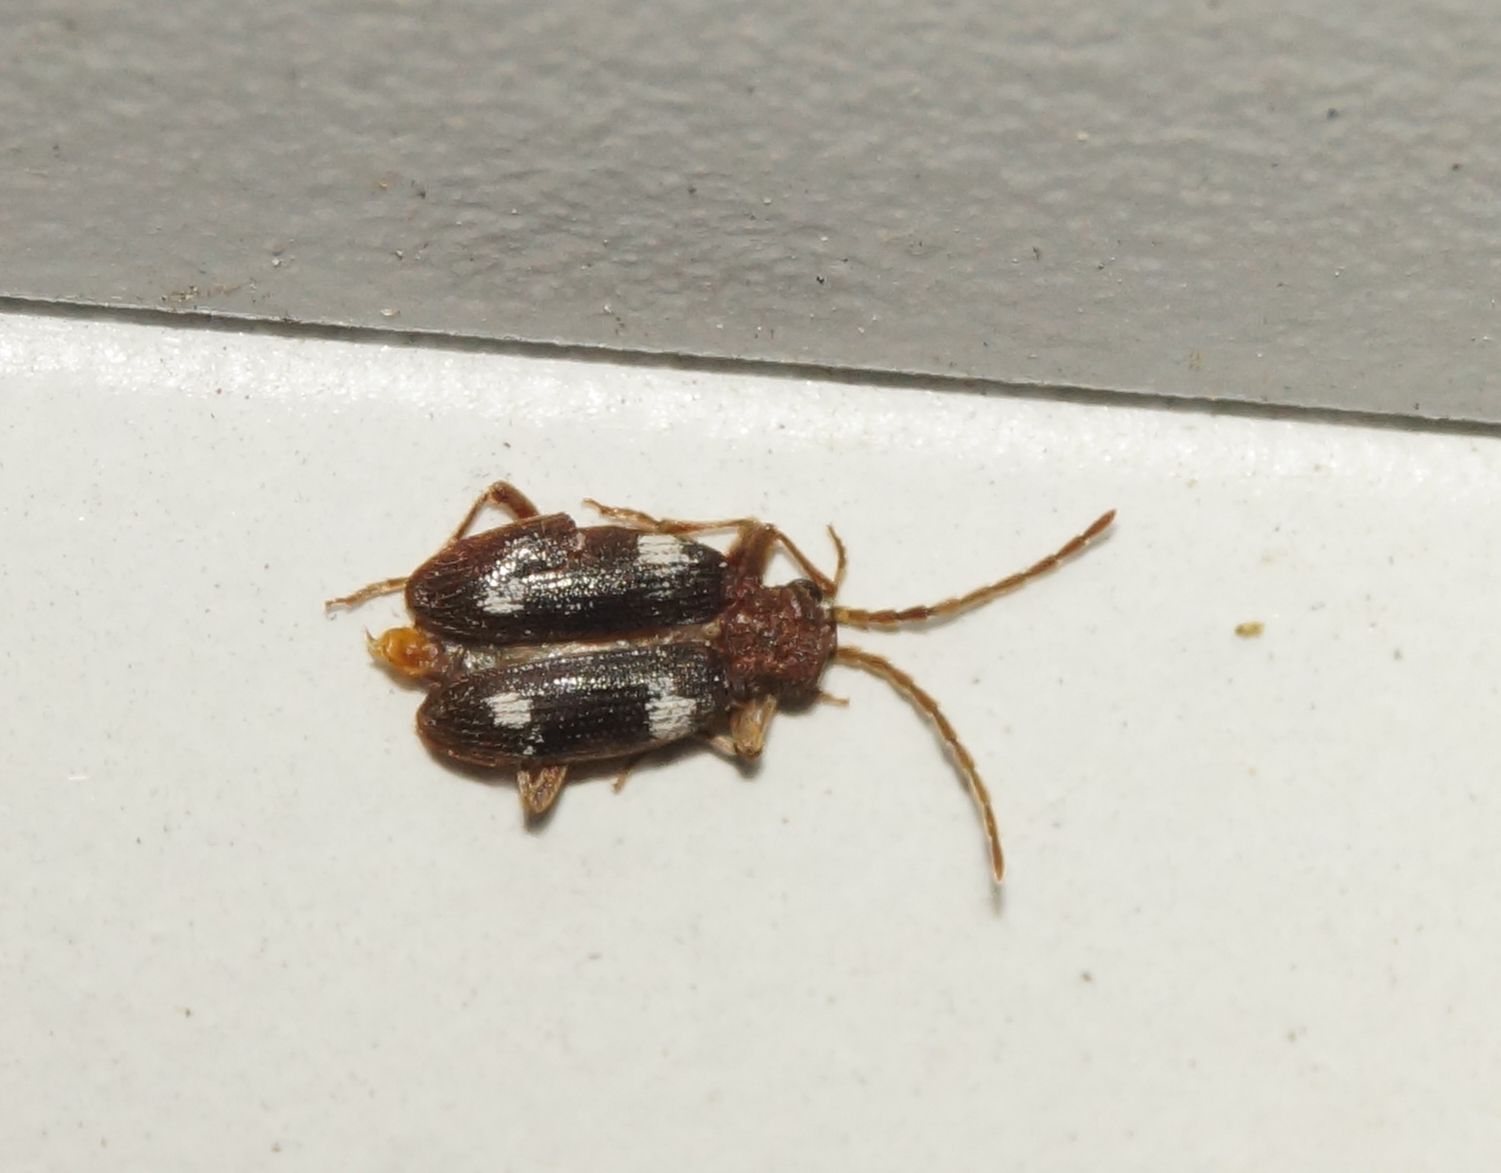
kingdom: Animalia
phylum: Arthropoda
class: Insecta
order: Coleoptera
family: Ptinidae
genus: Ptinus
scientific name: Ptinus sexpunctatus
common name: Six-spotted spider beetle
